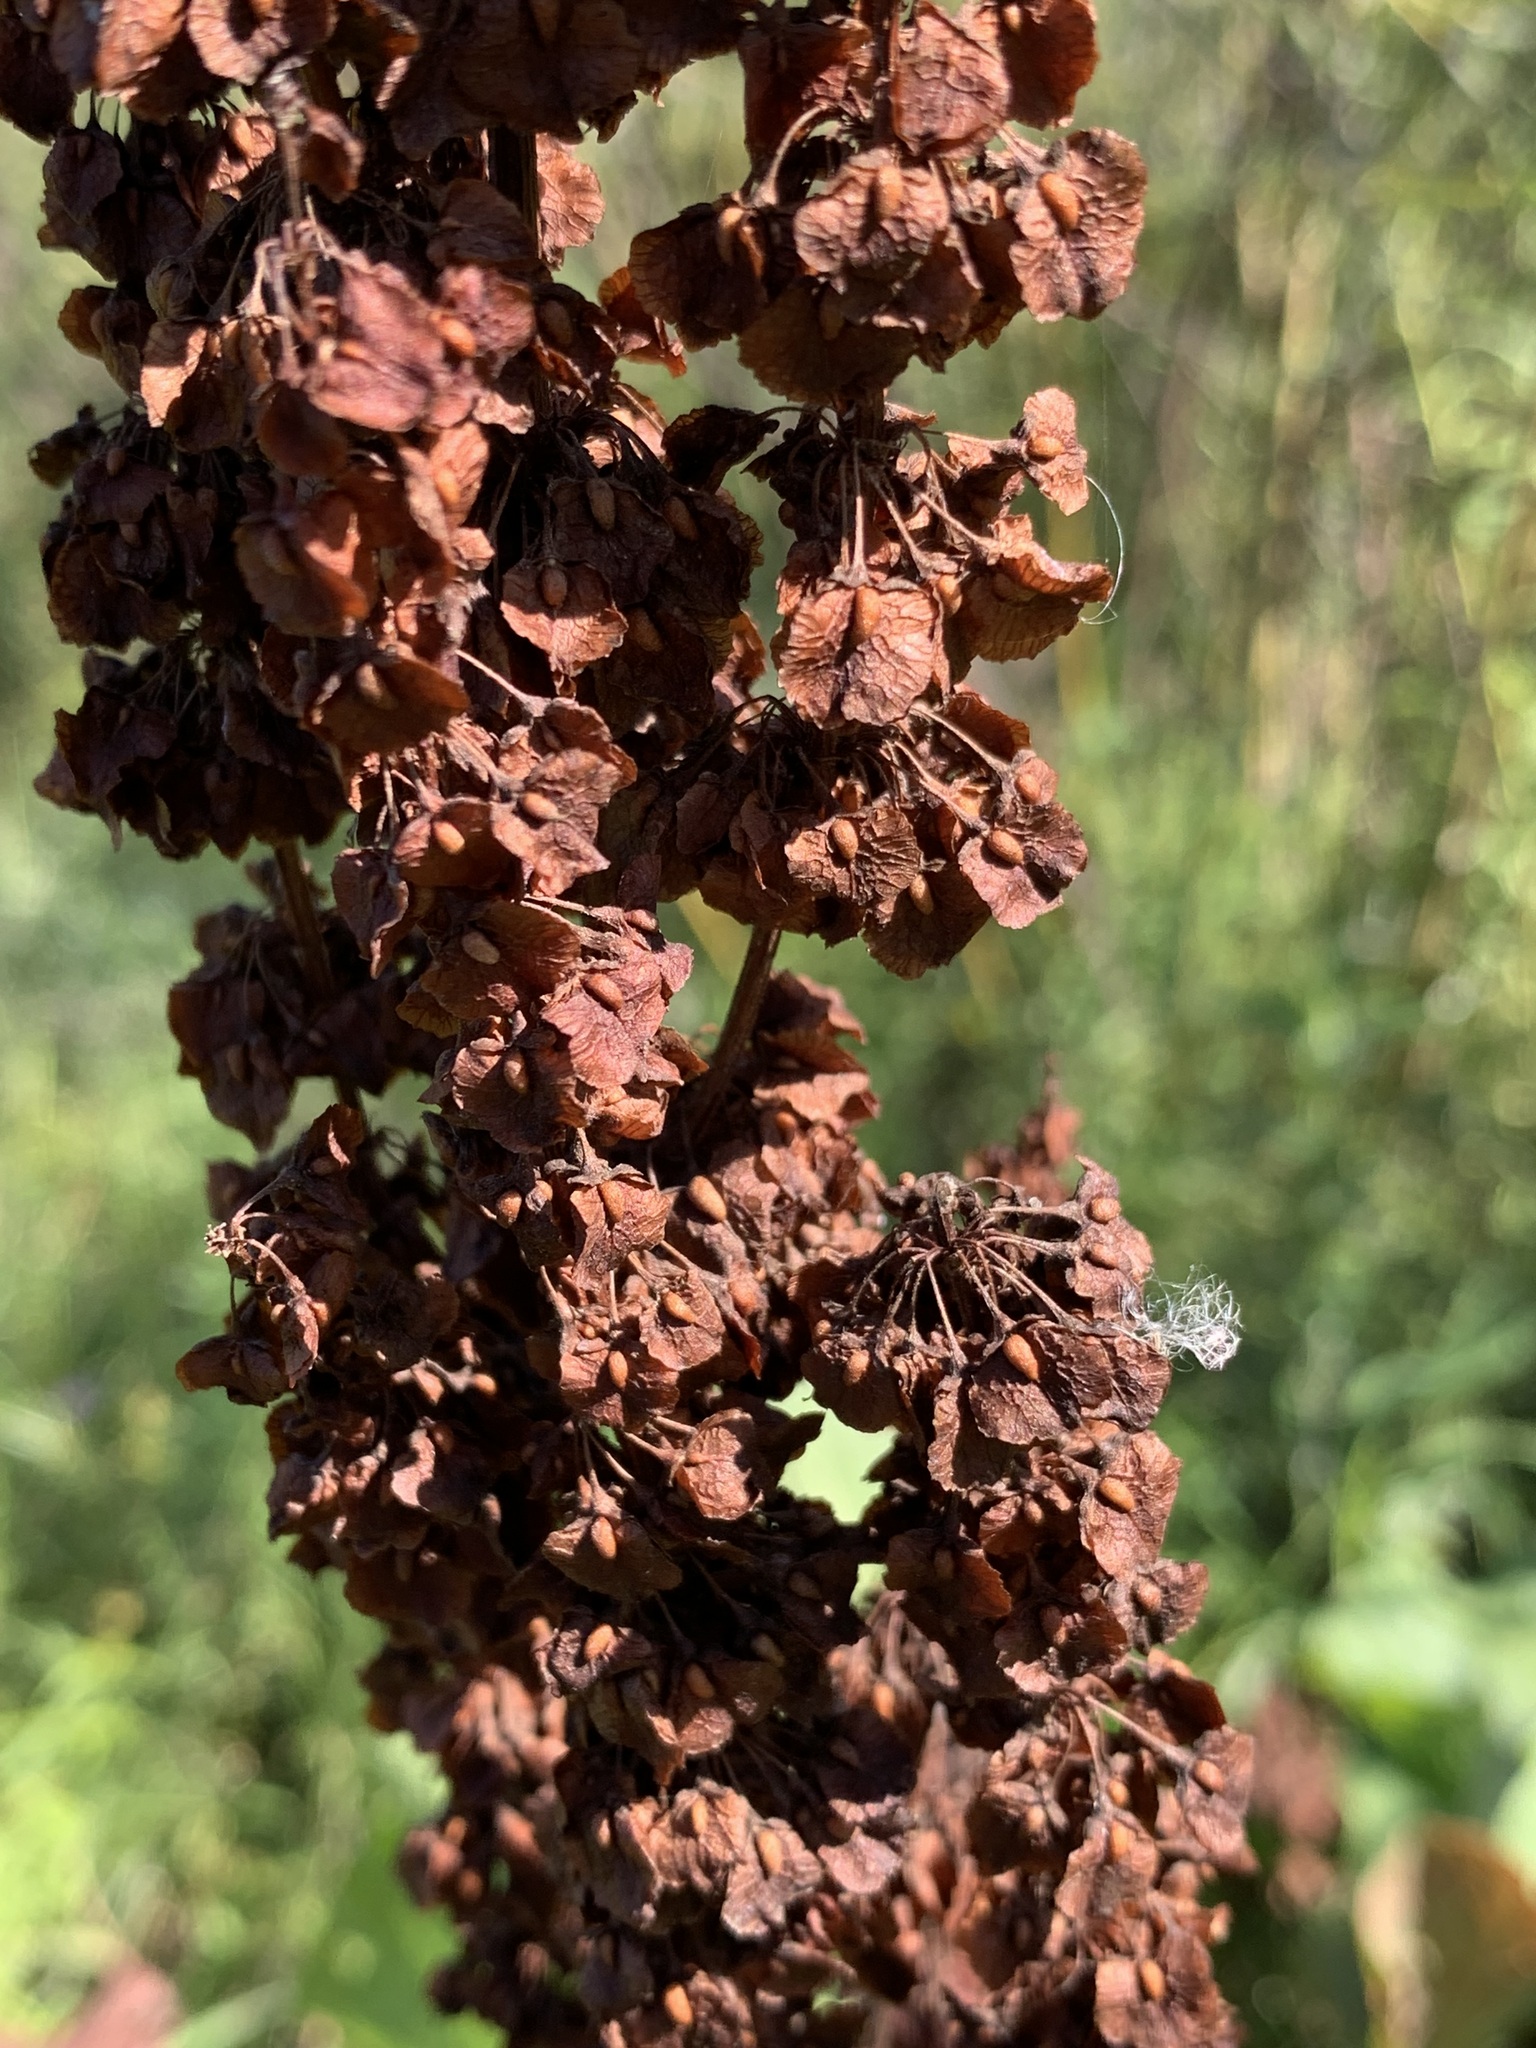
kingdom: Plantae
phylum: Tracheophyta
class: Magnoliopsida
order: Caryophyllales
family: Polygonaceae
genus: Rumex
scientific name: Rumex confertus
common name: Russian dock
